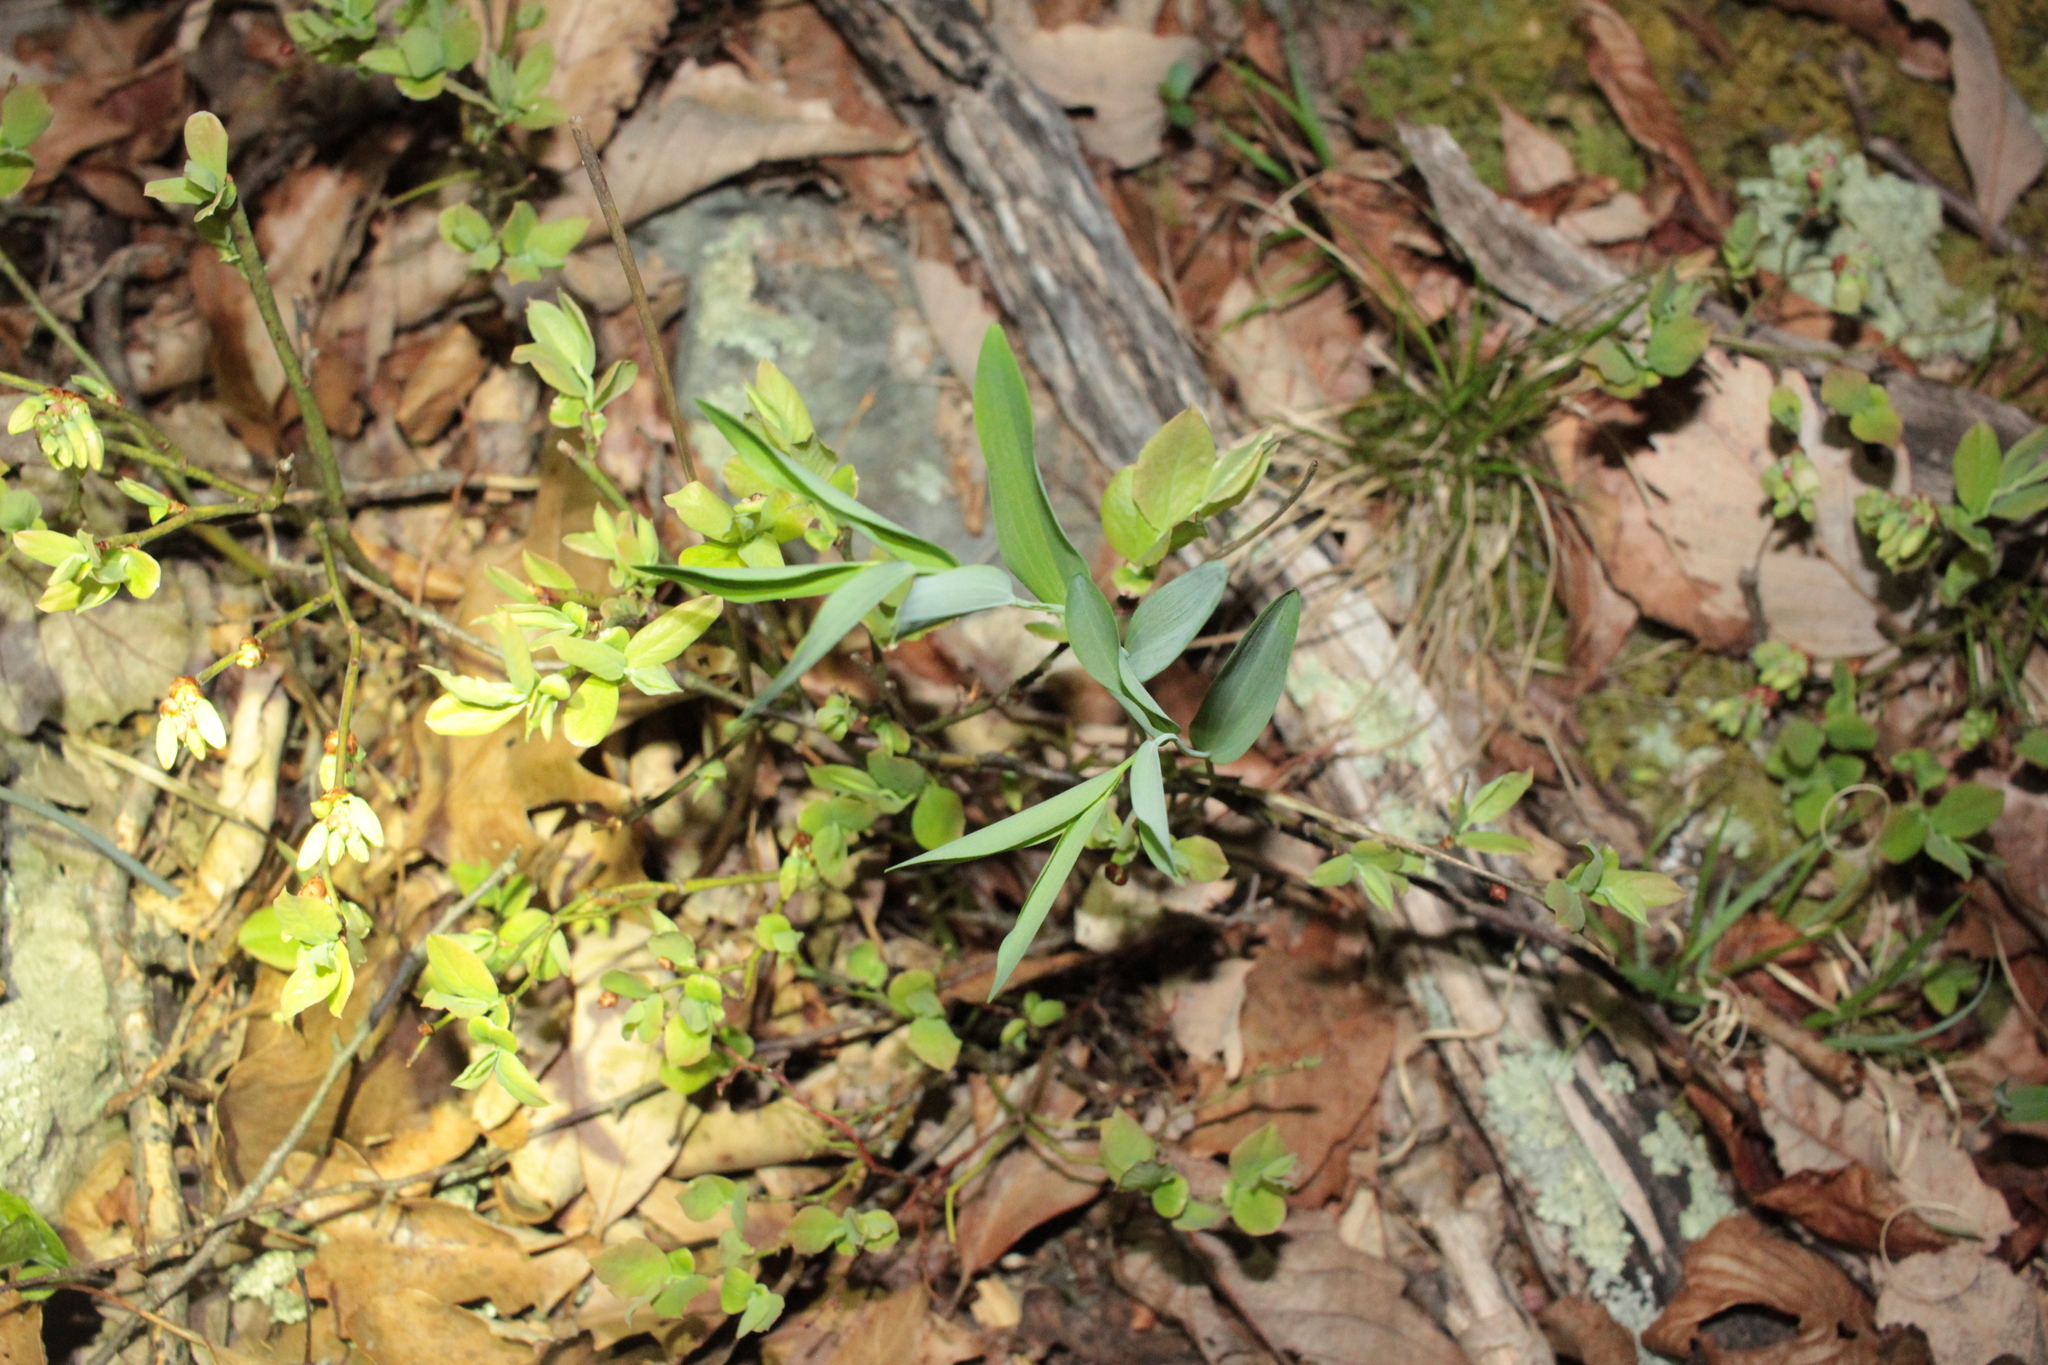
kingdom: Plantae
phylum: Tracheophyta
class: Liliopsida
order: Asparagales
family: Asparagaceae
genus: Polygonatum
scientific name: Polygonatum biflorum
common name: American solomon's-seal
